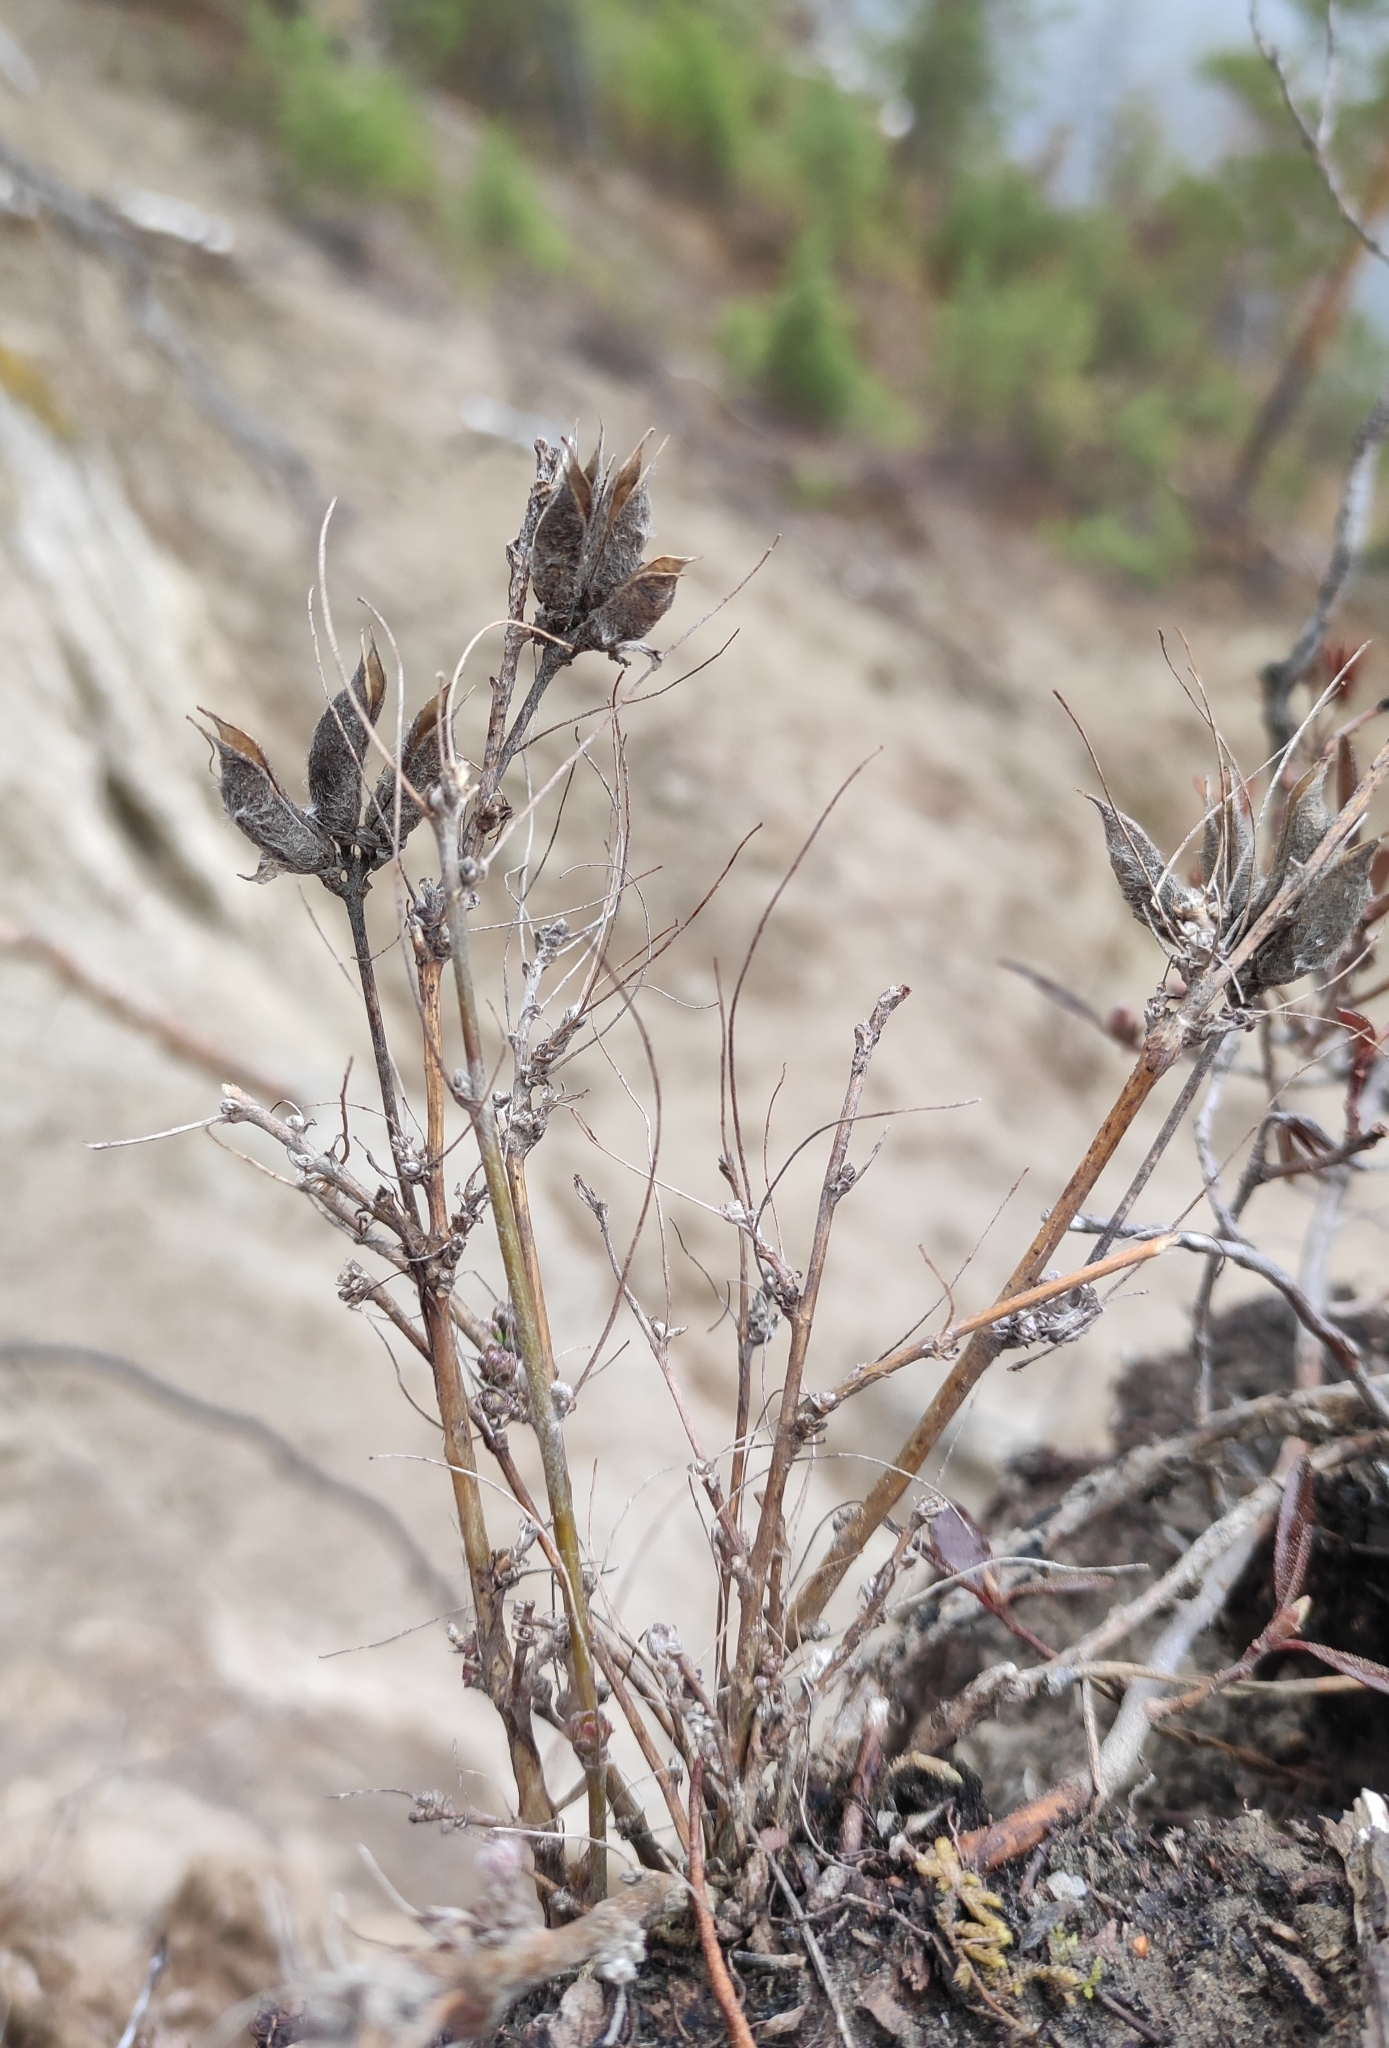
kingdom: Plantae
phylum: Tracheophyta
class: Magnoliopsida
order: Fabales
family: Fabaceae
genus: Astragalus
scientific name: Astragalus syriacus
